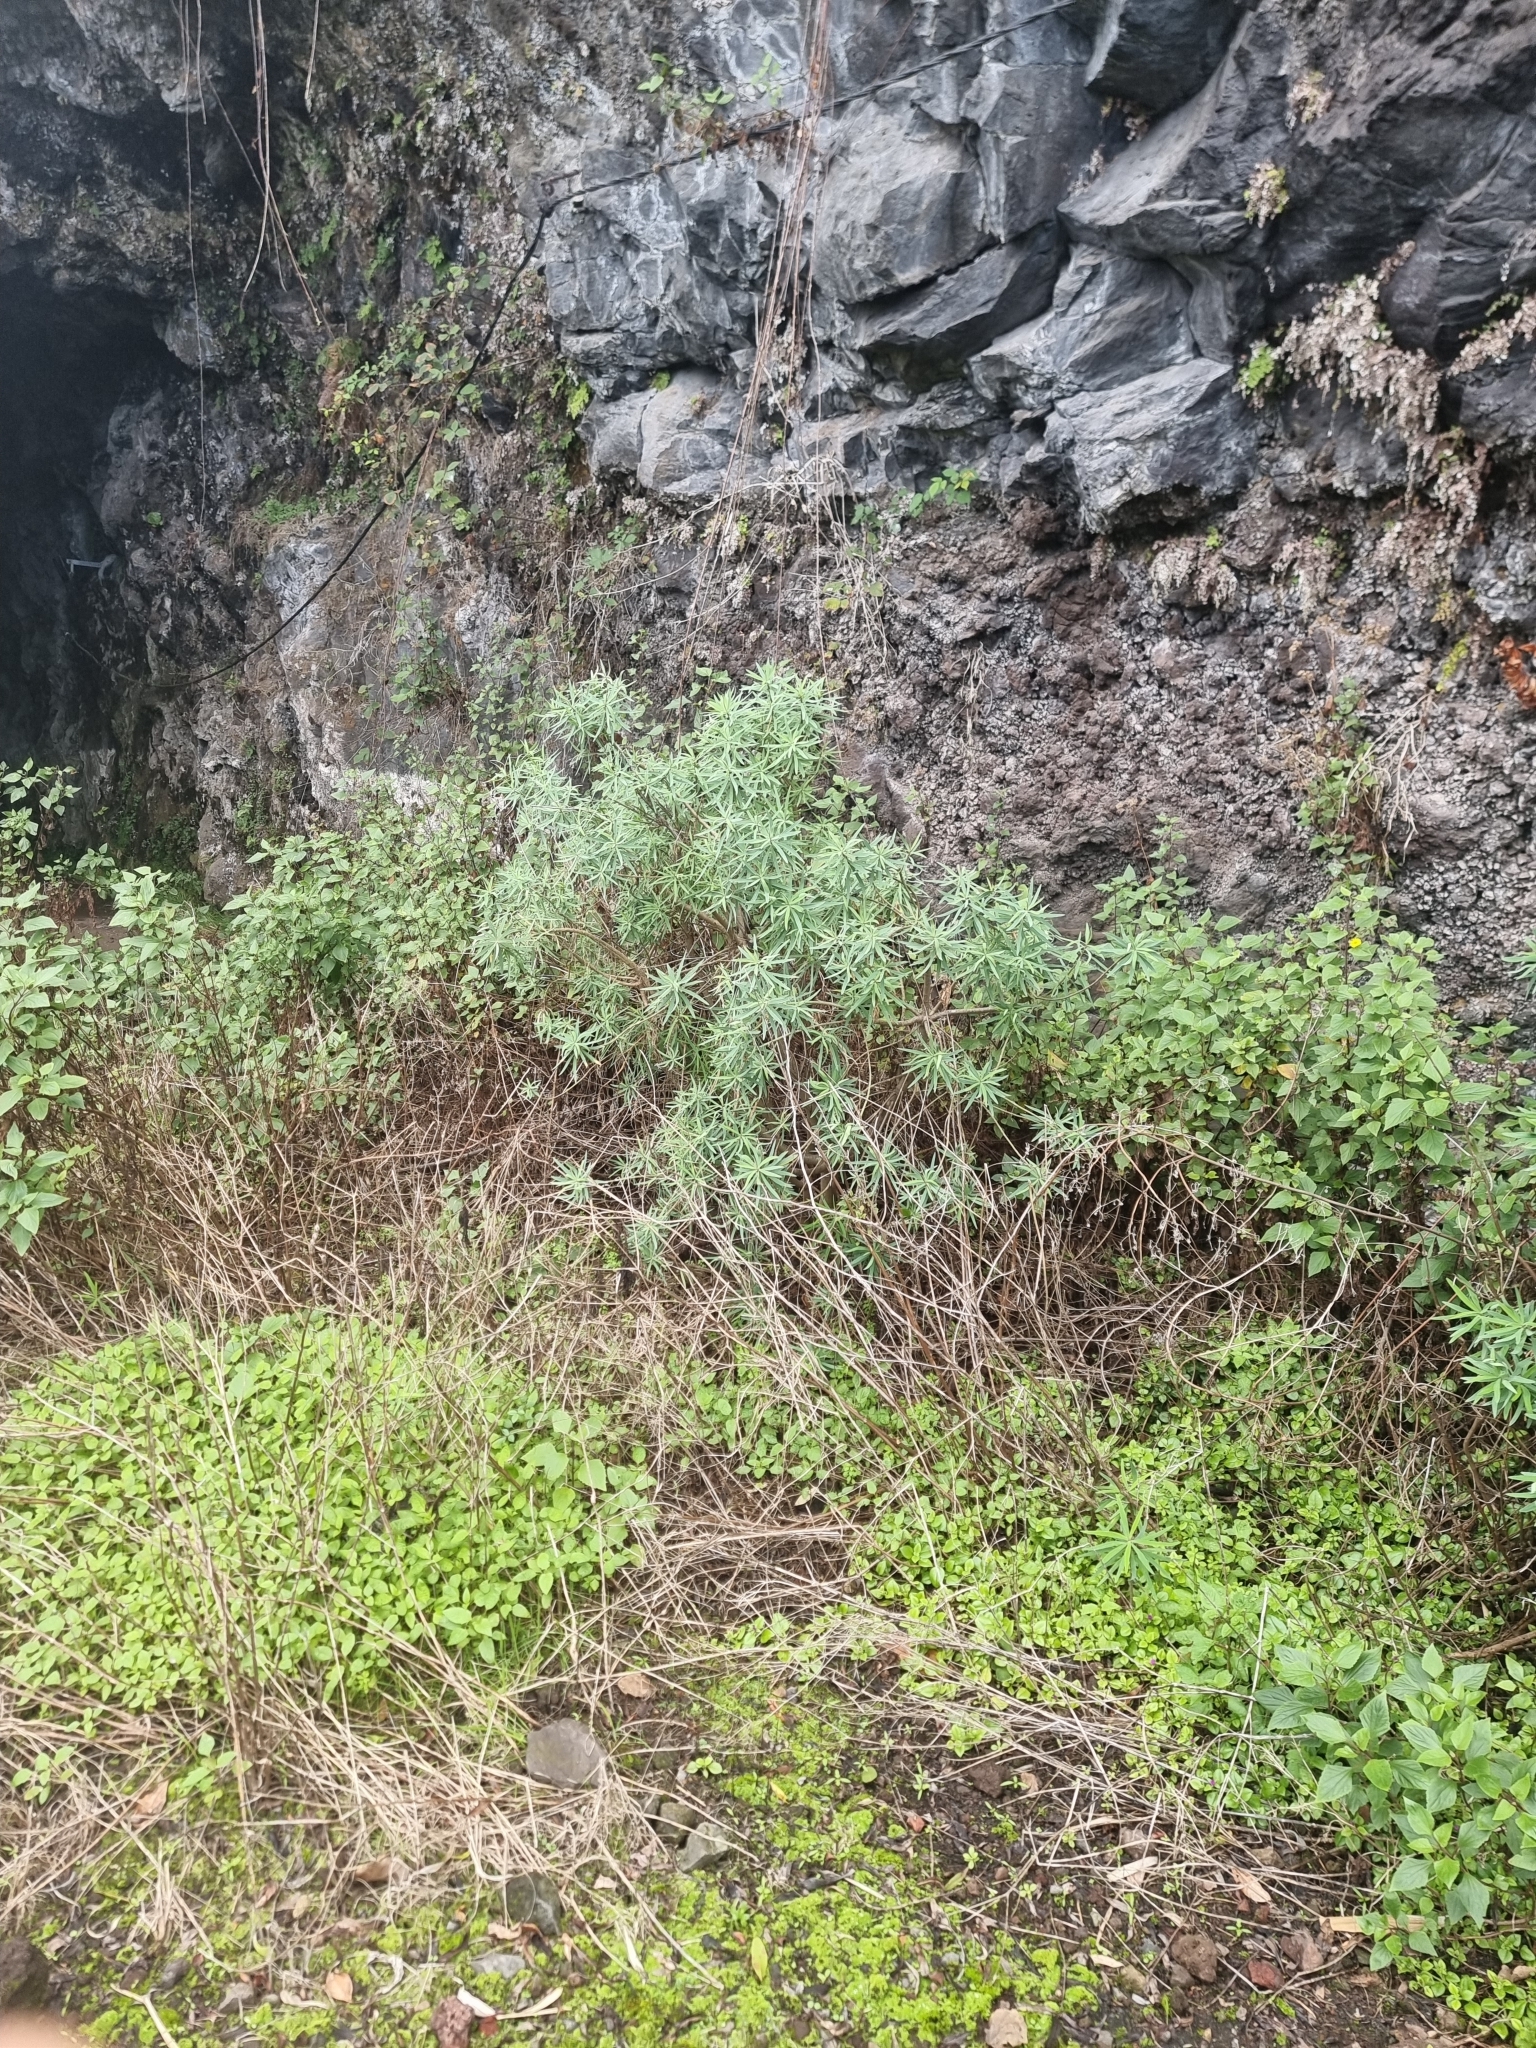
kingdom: Plantae
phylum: Tracheophyta
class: Magnoliopsida
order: Malpighiales
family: Euphorbiaceae
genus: Euphorbia
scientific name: Euphorbia piscatoria
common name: Fish-stunning spurge
